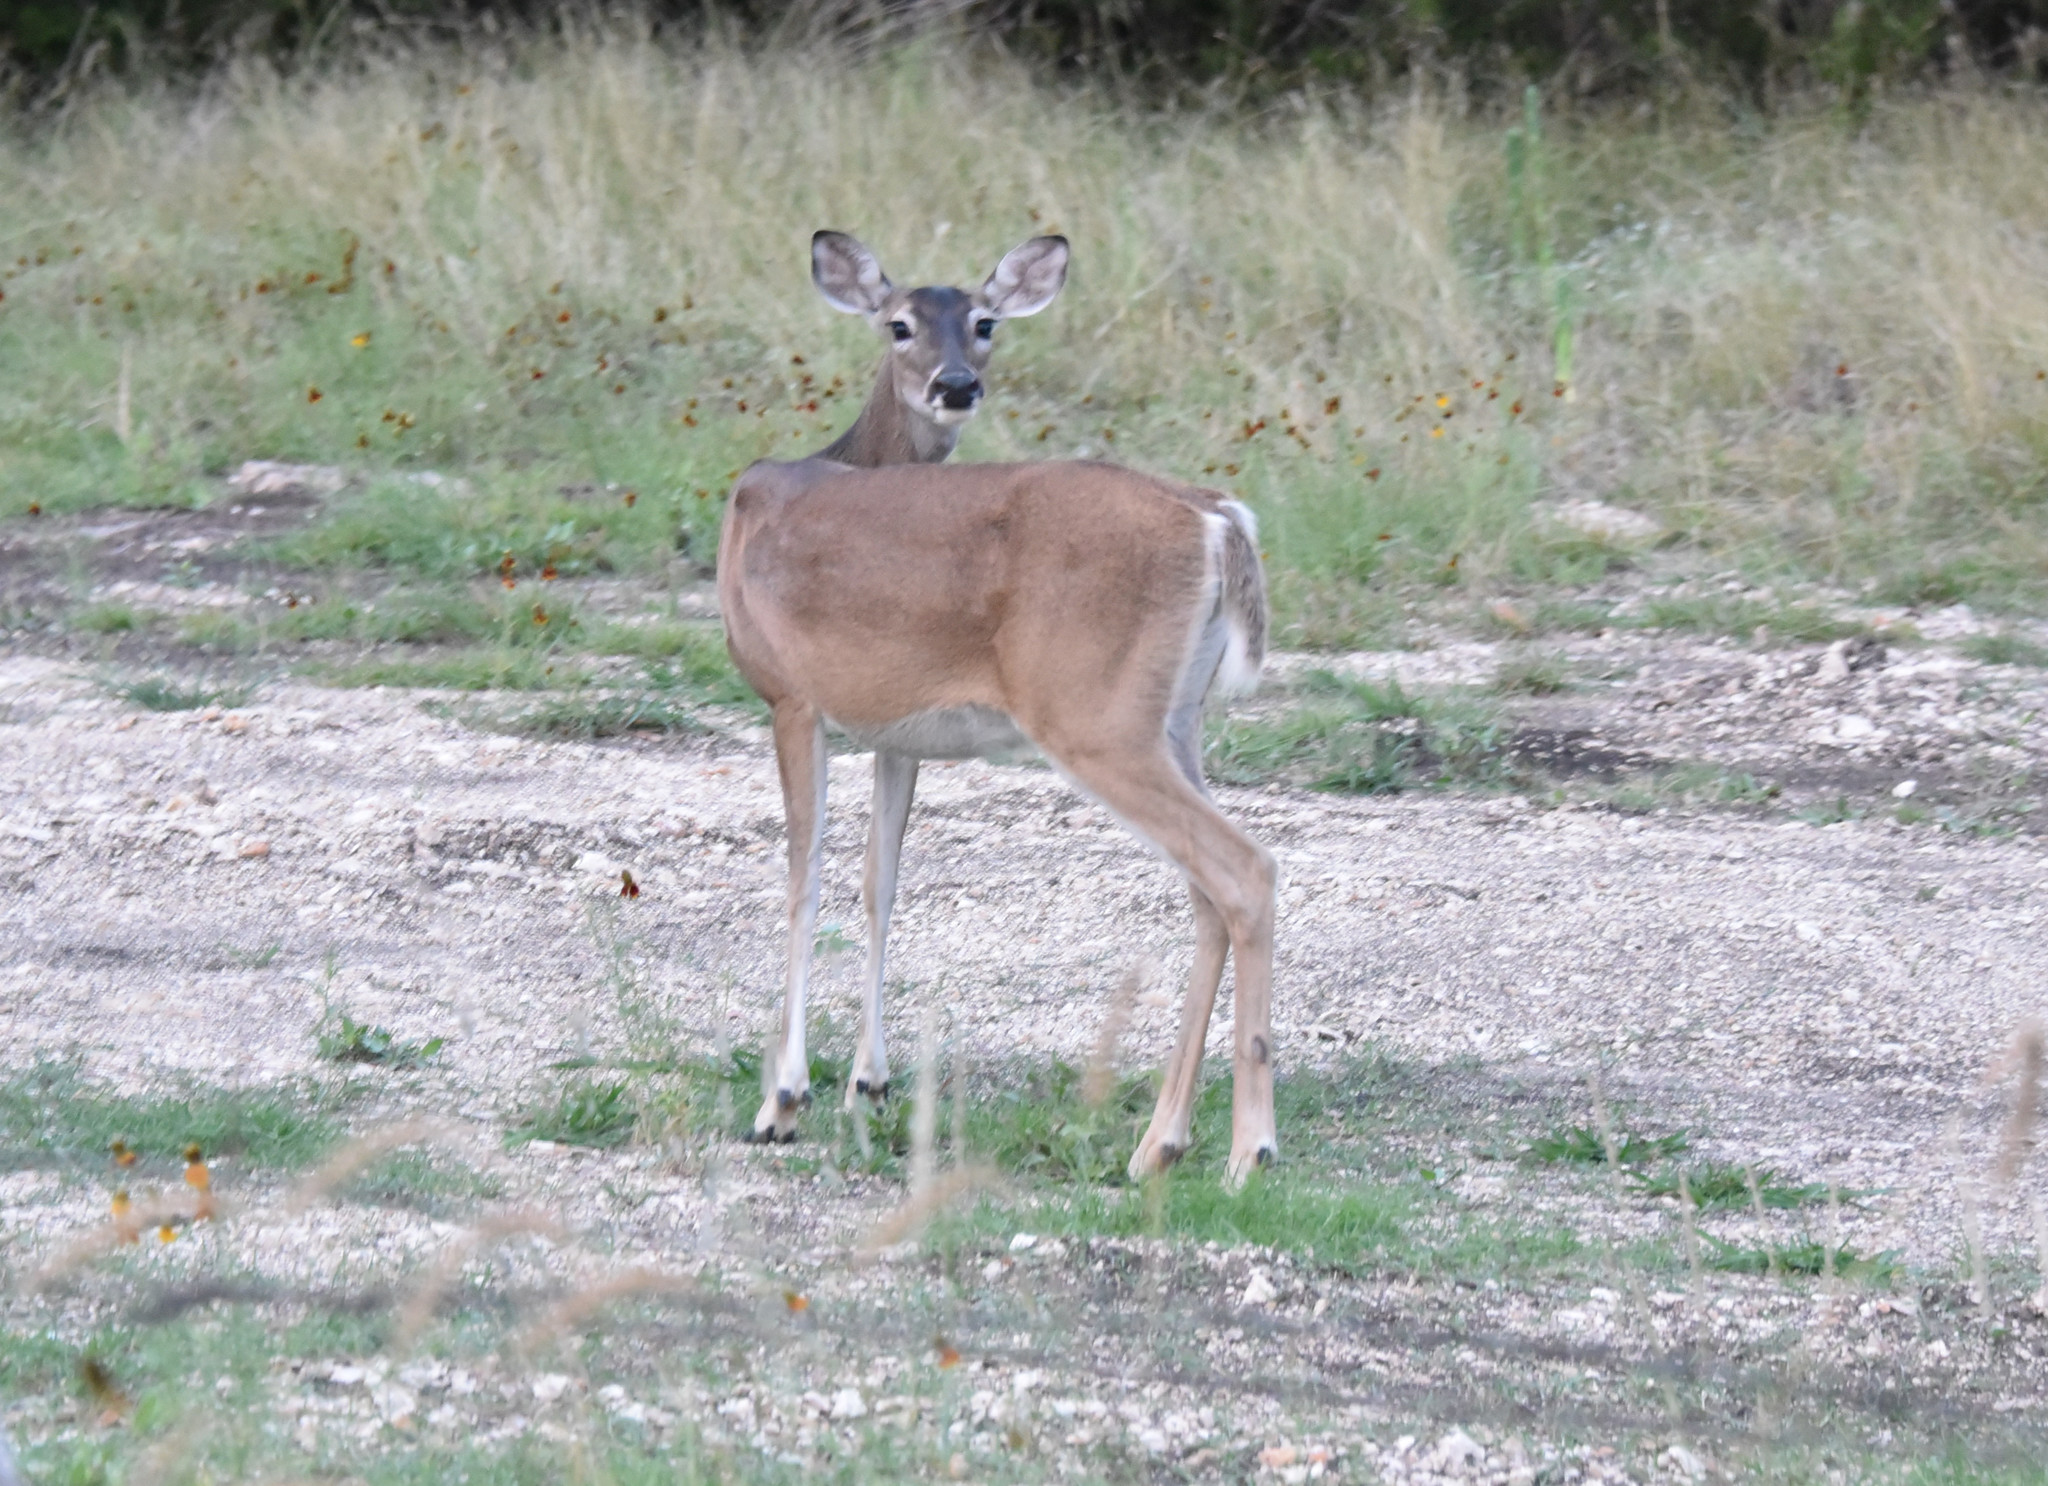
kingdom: Animalia
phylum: Chordata
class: Mammalia
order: Artiodactyla
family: Cervidae
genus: Odocoileus
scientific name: Odocoileus virginianus
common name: White-tailed deer
